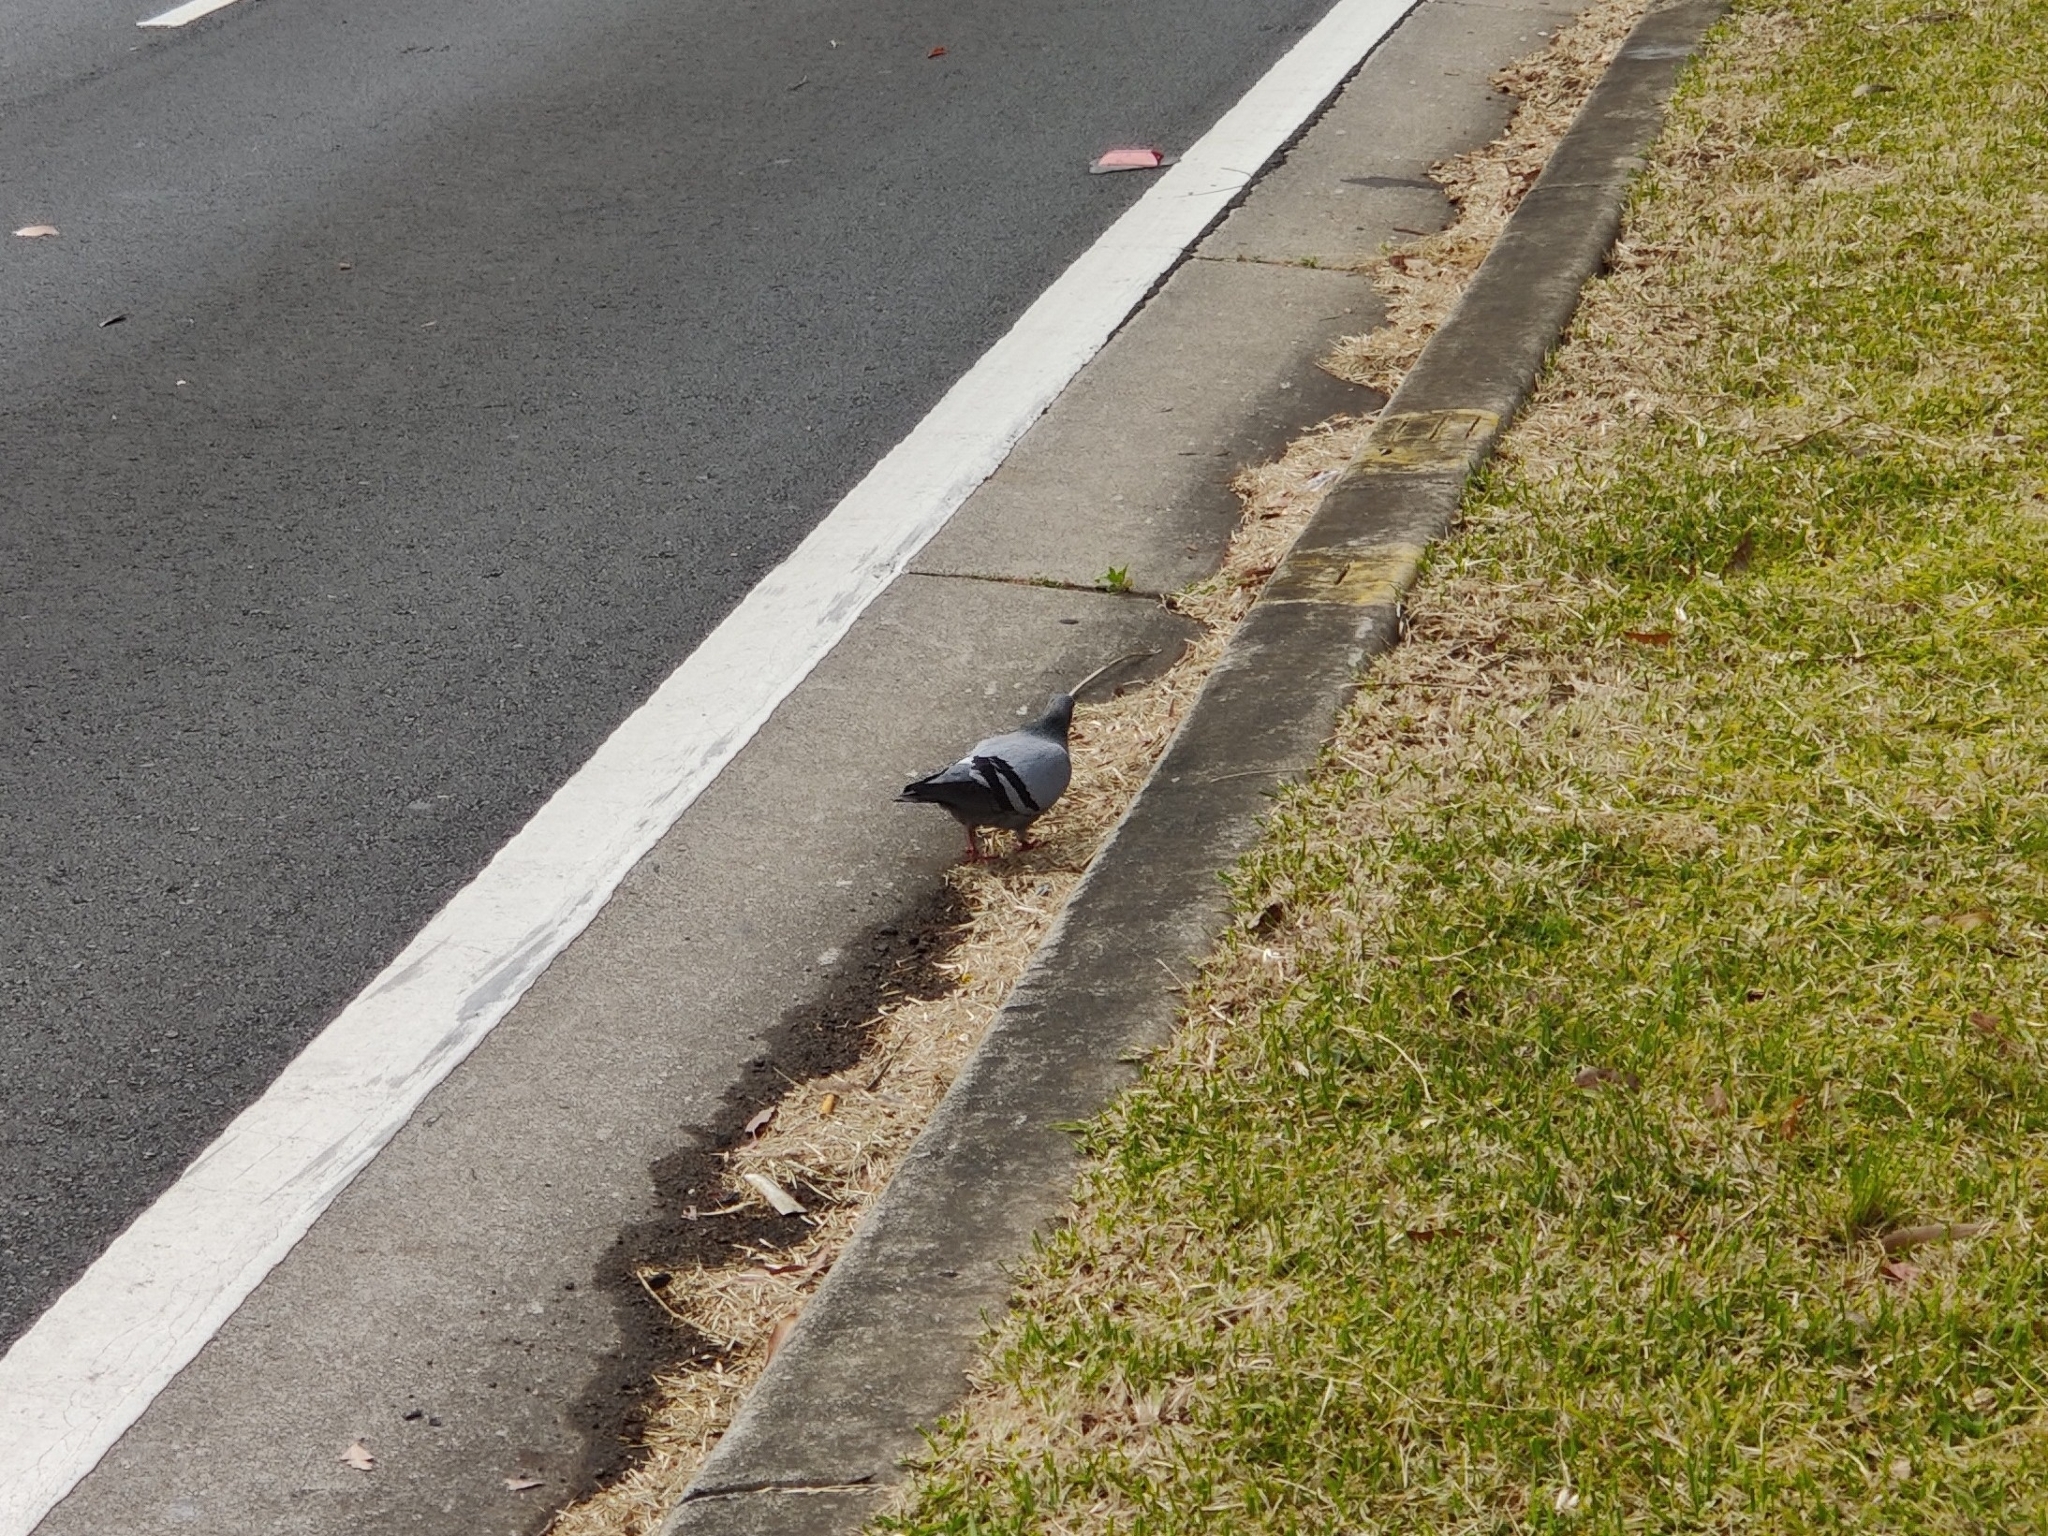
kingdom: Animalia
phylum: Chordata
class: Aves
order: Columbiformes
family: Columbidae
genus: Columba
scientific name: Columba livia
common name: Rock pigeon
